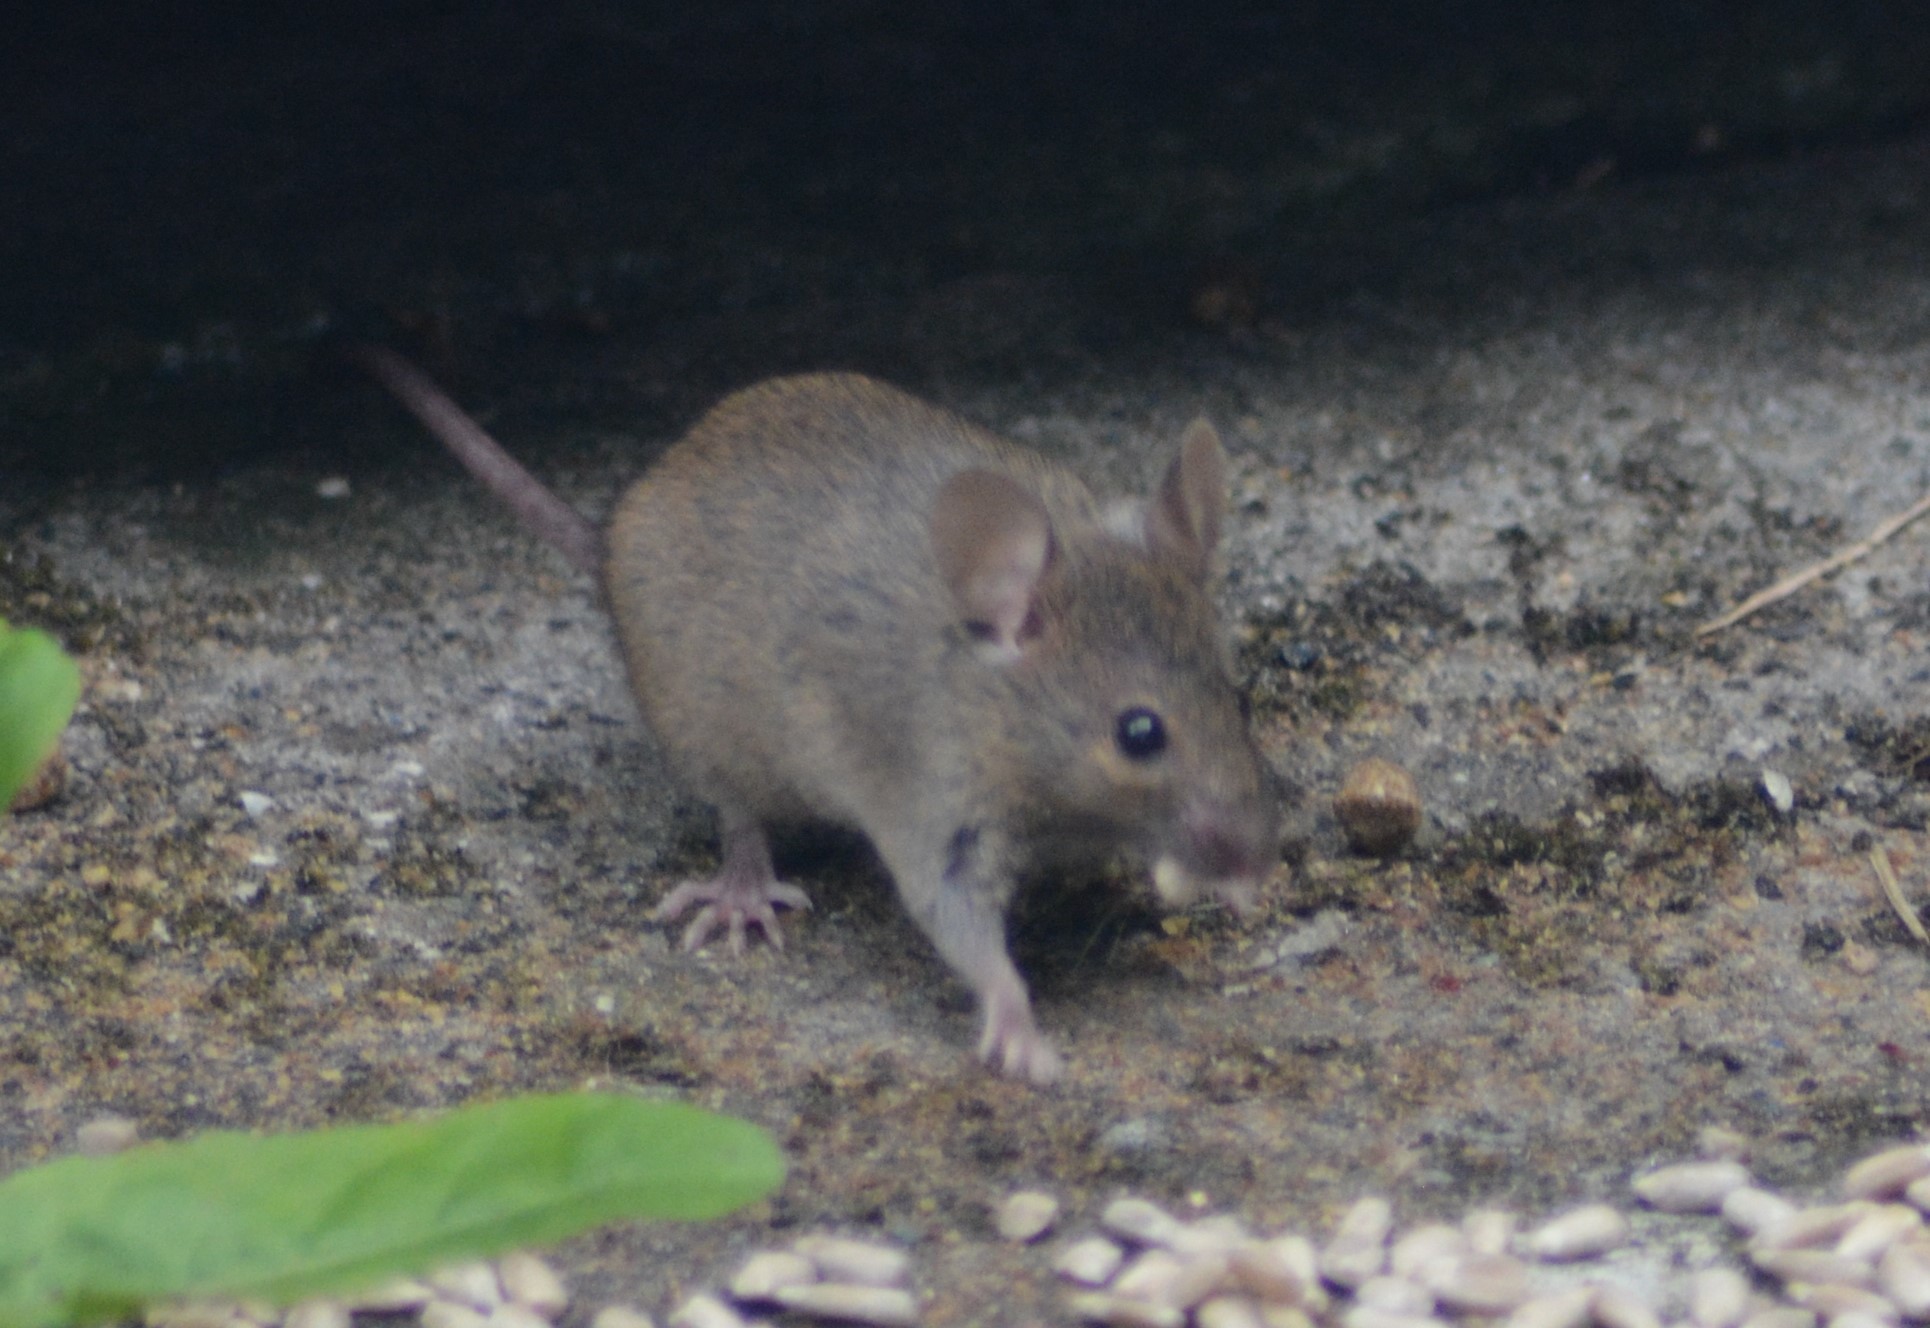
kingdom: Animalia
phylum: Chordata
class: Mammalia
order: Rodentia
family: Muridae
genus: Mus
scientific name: Mus musculus
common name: House mouse
